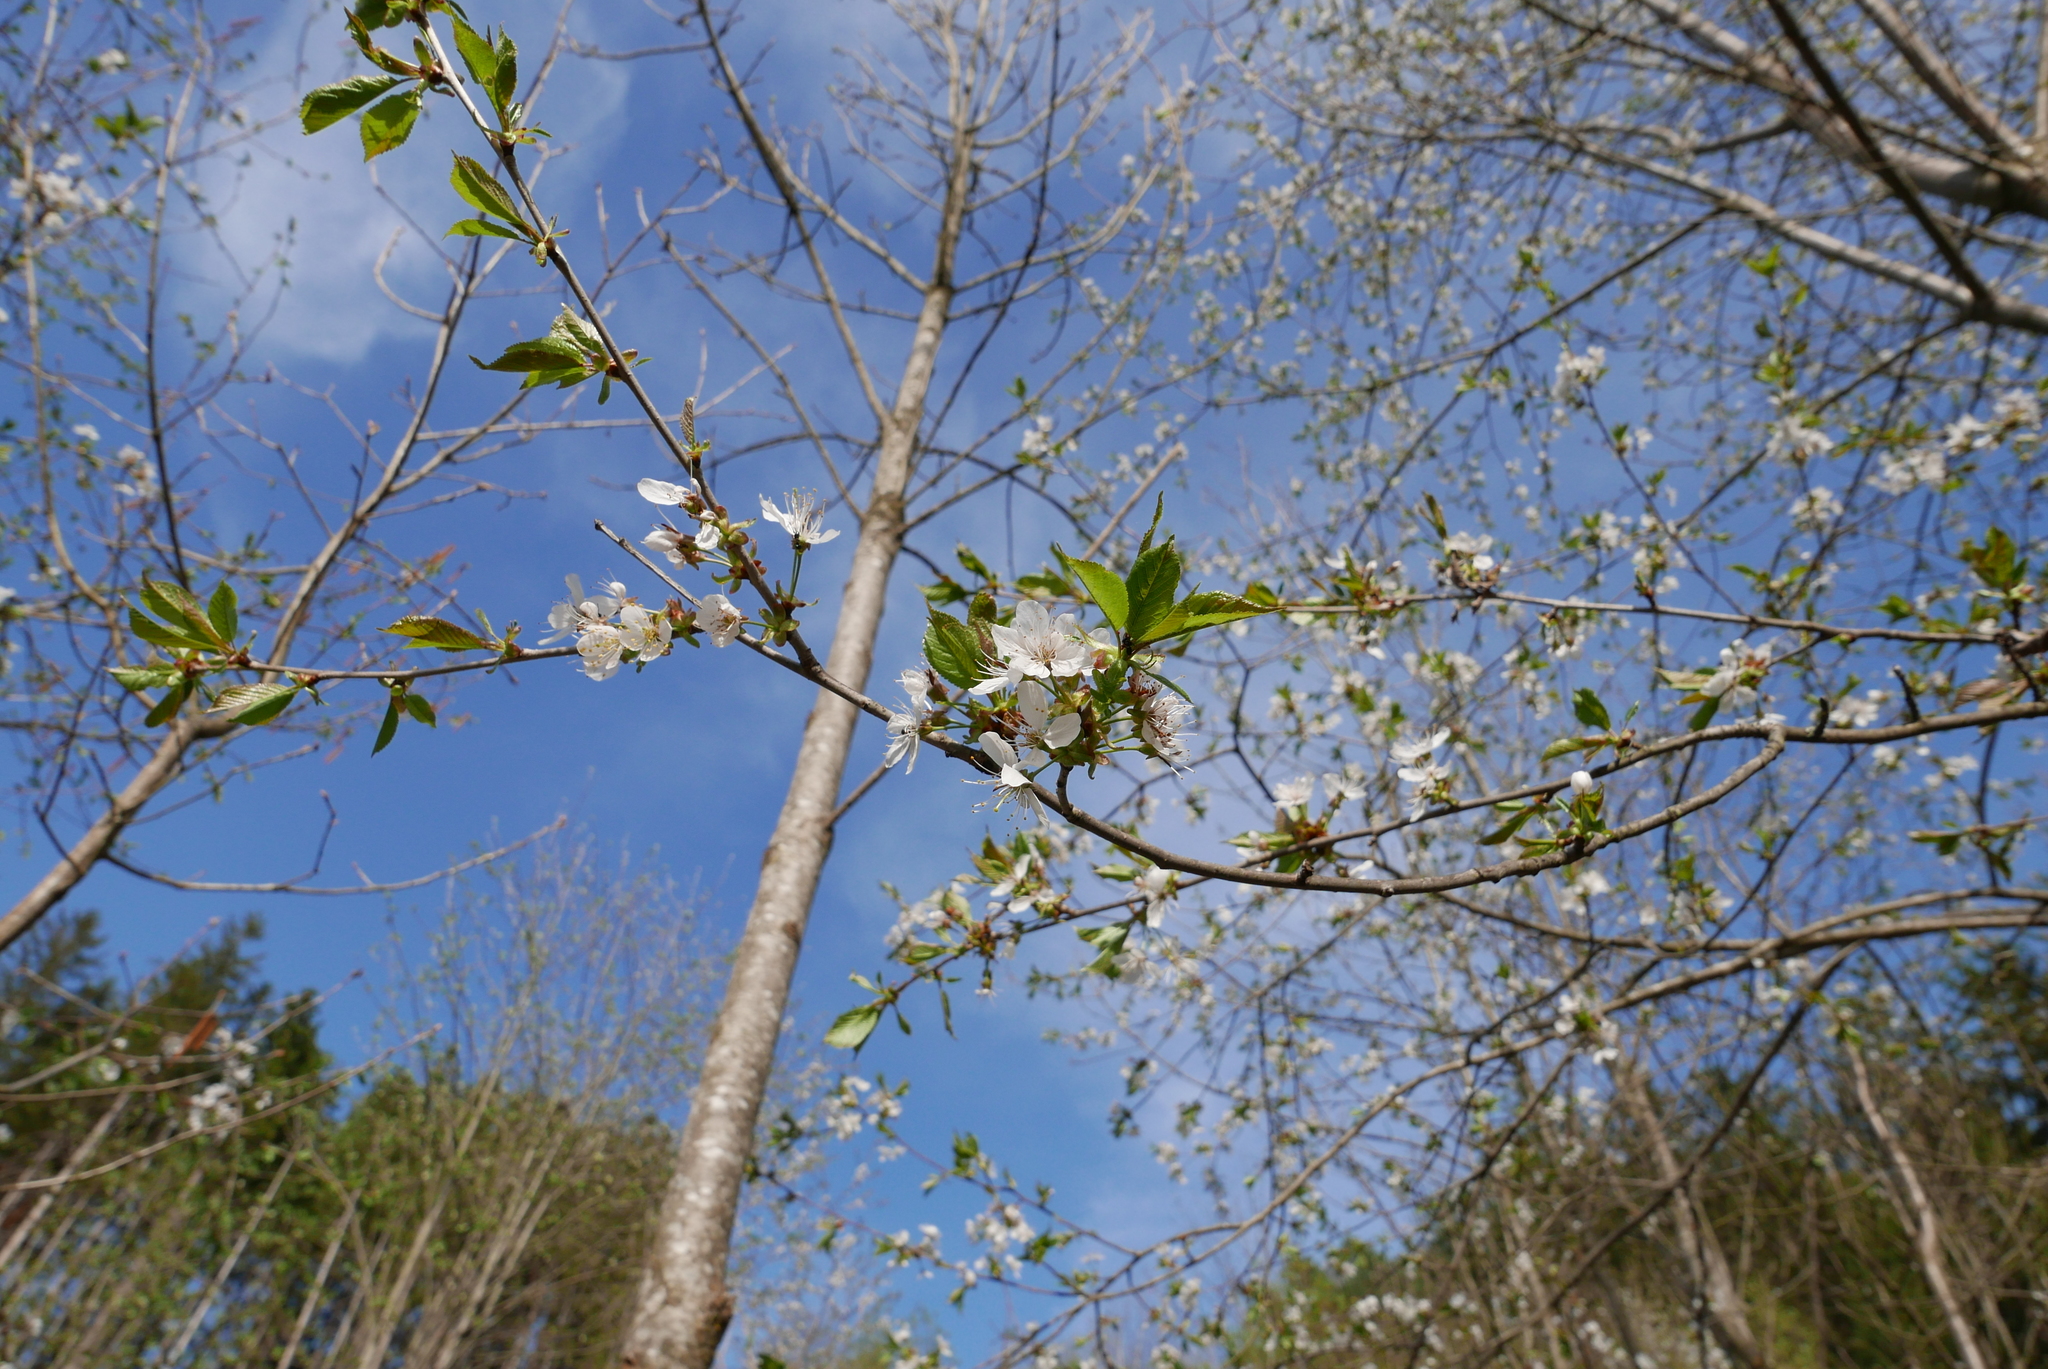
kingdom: Plantae
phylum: Tracheophyta
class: Magnoliopsida
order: Rosales
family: Rosaceae
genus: Prunus
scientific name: Prunus avium
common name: Sweet cherry
